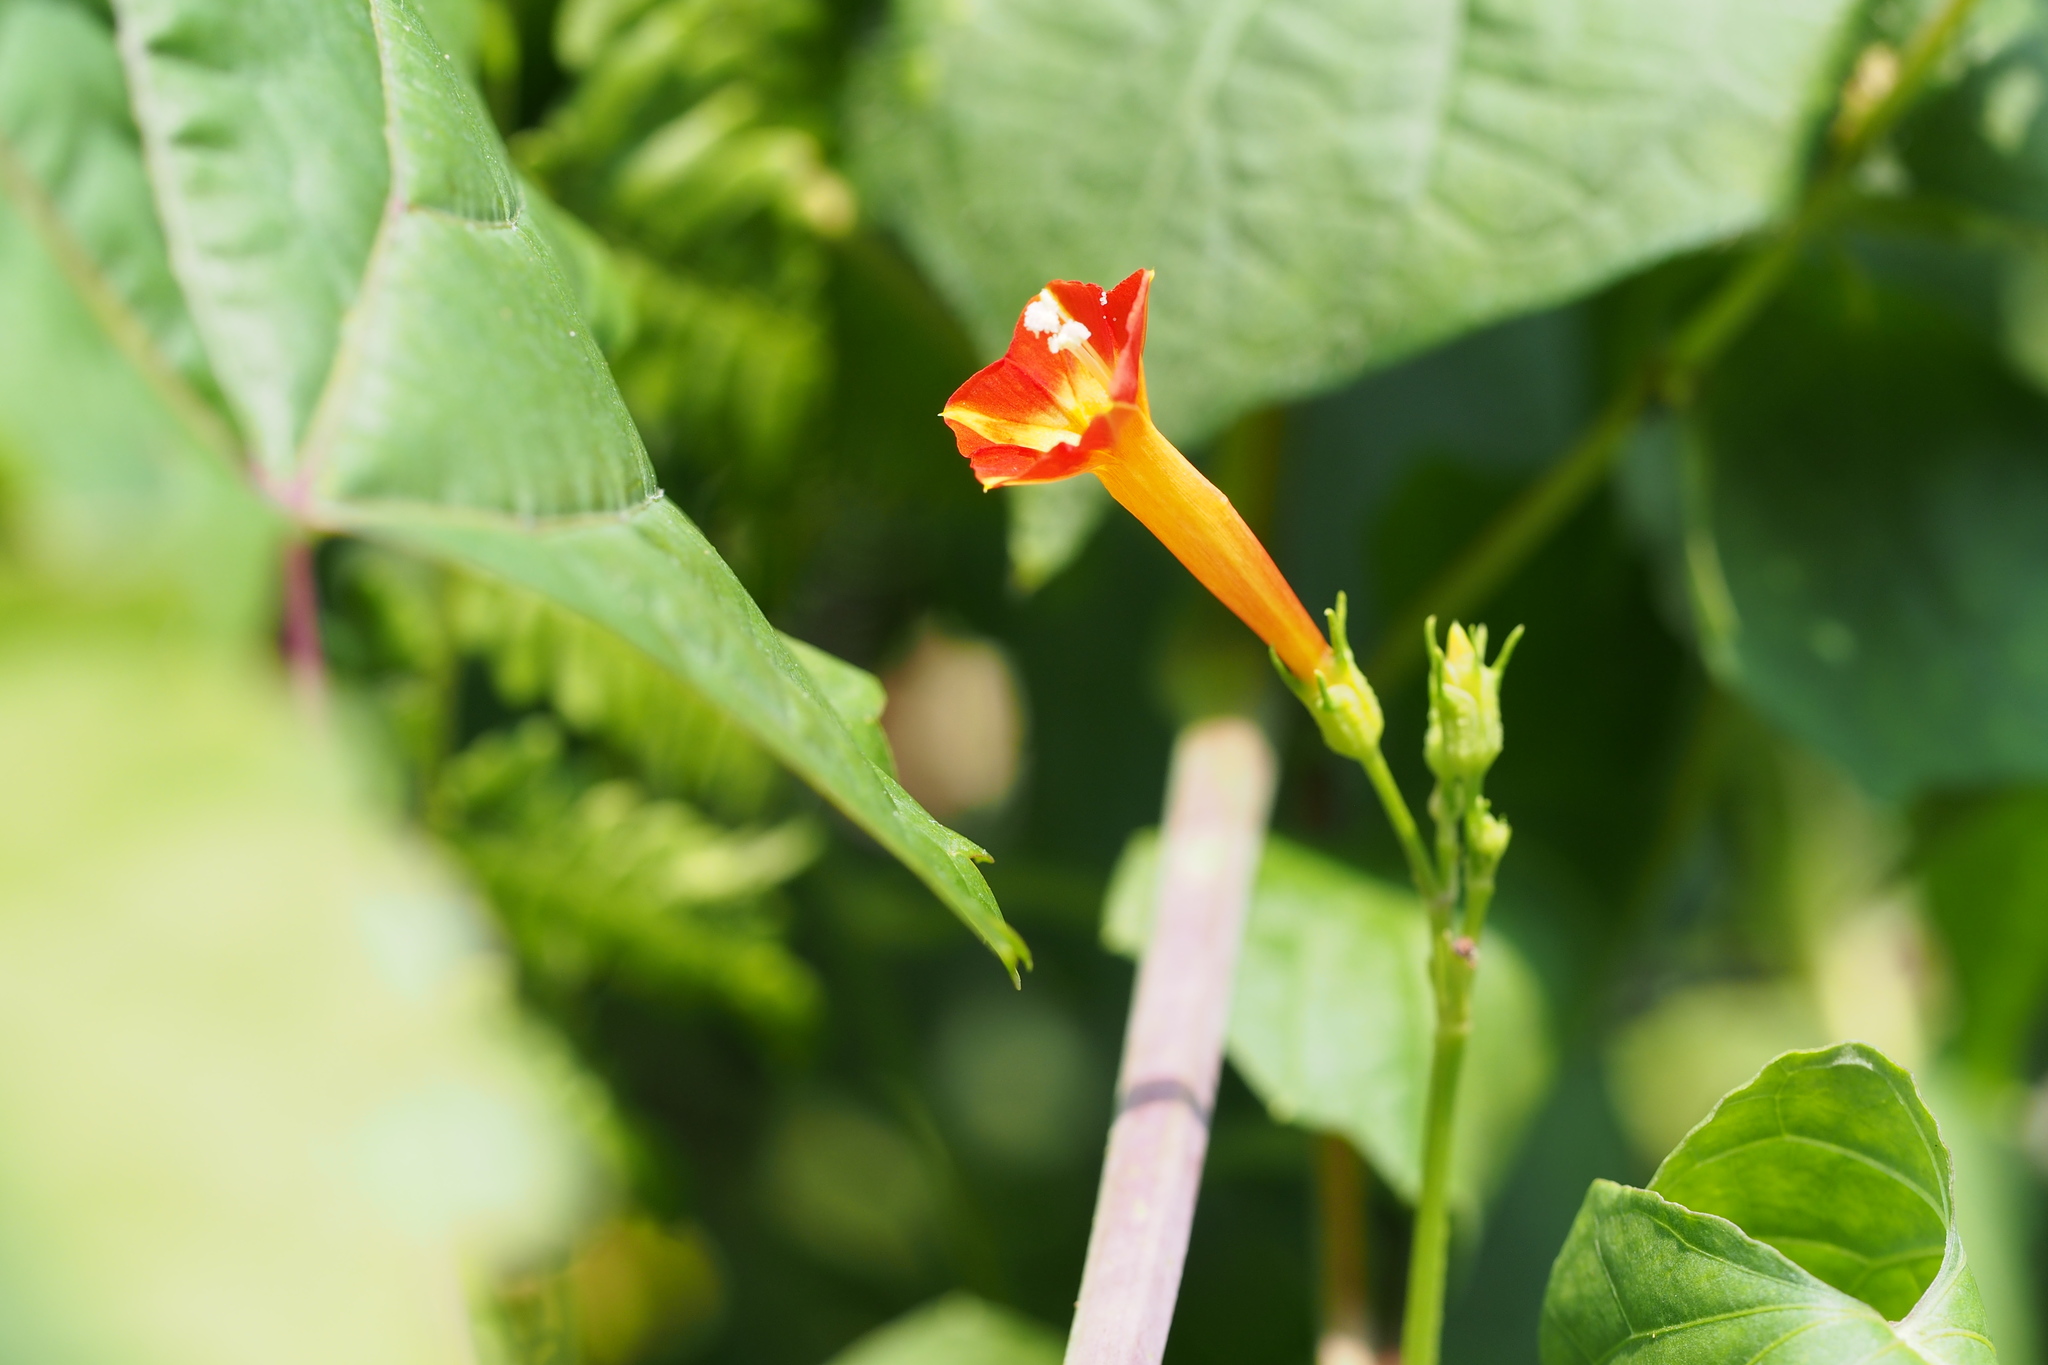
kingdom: Plantae
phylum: Tracheophyta
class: Magnoliopsida
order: Solanales
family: Convolvulaceae
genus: Ipomoea
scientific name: Ipomoea coccinea
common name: Red morning-glory
